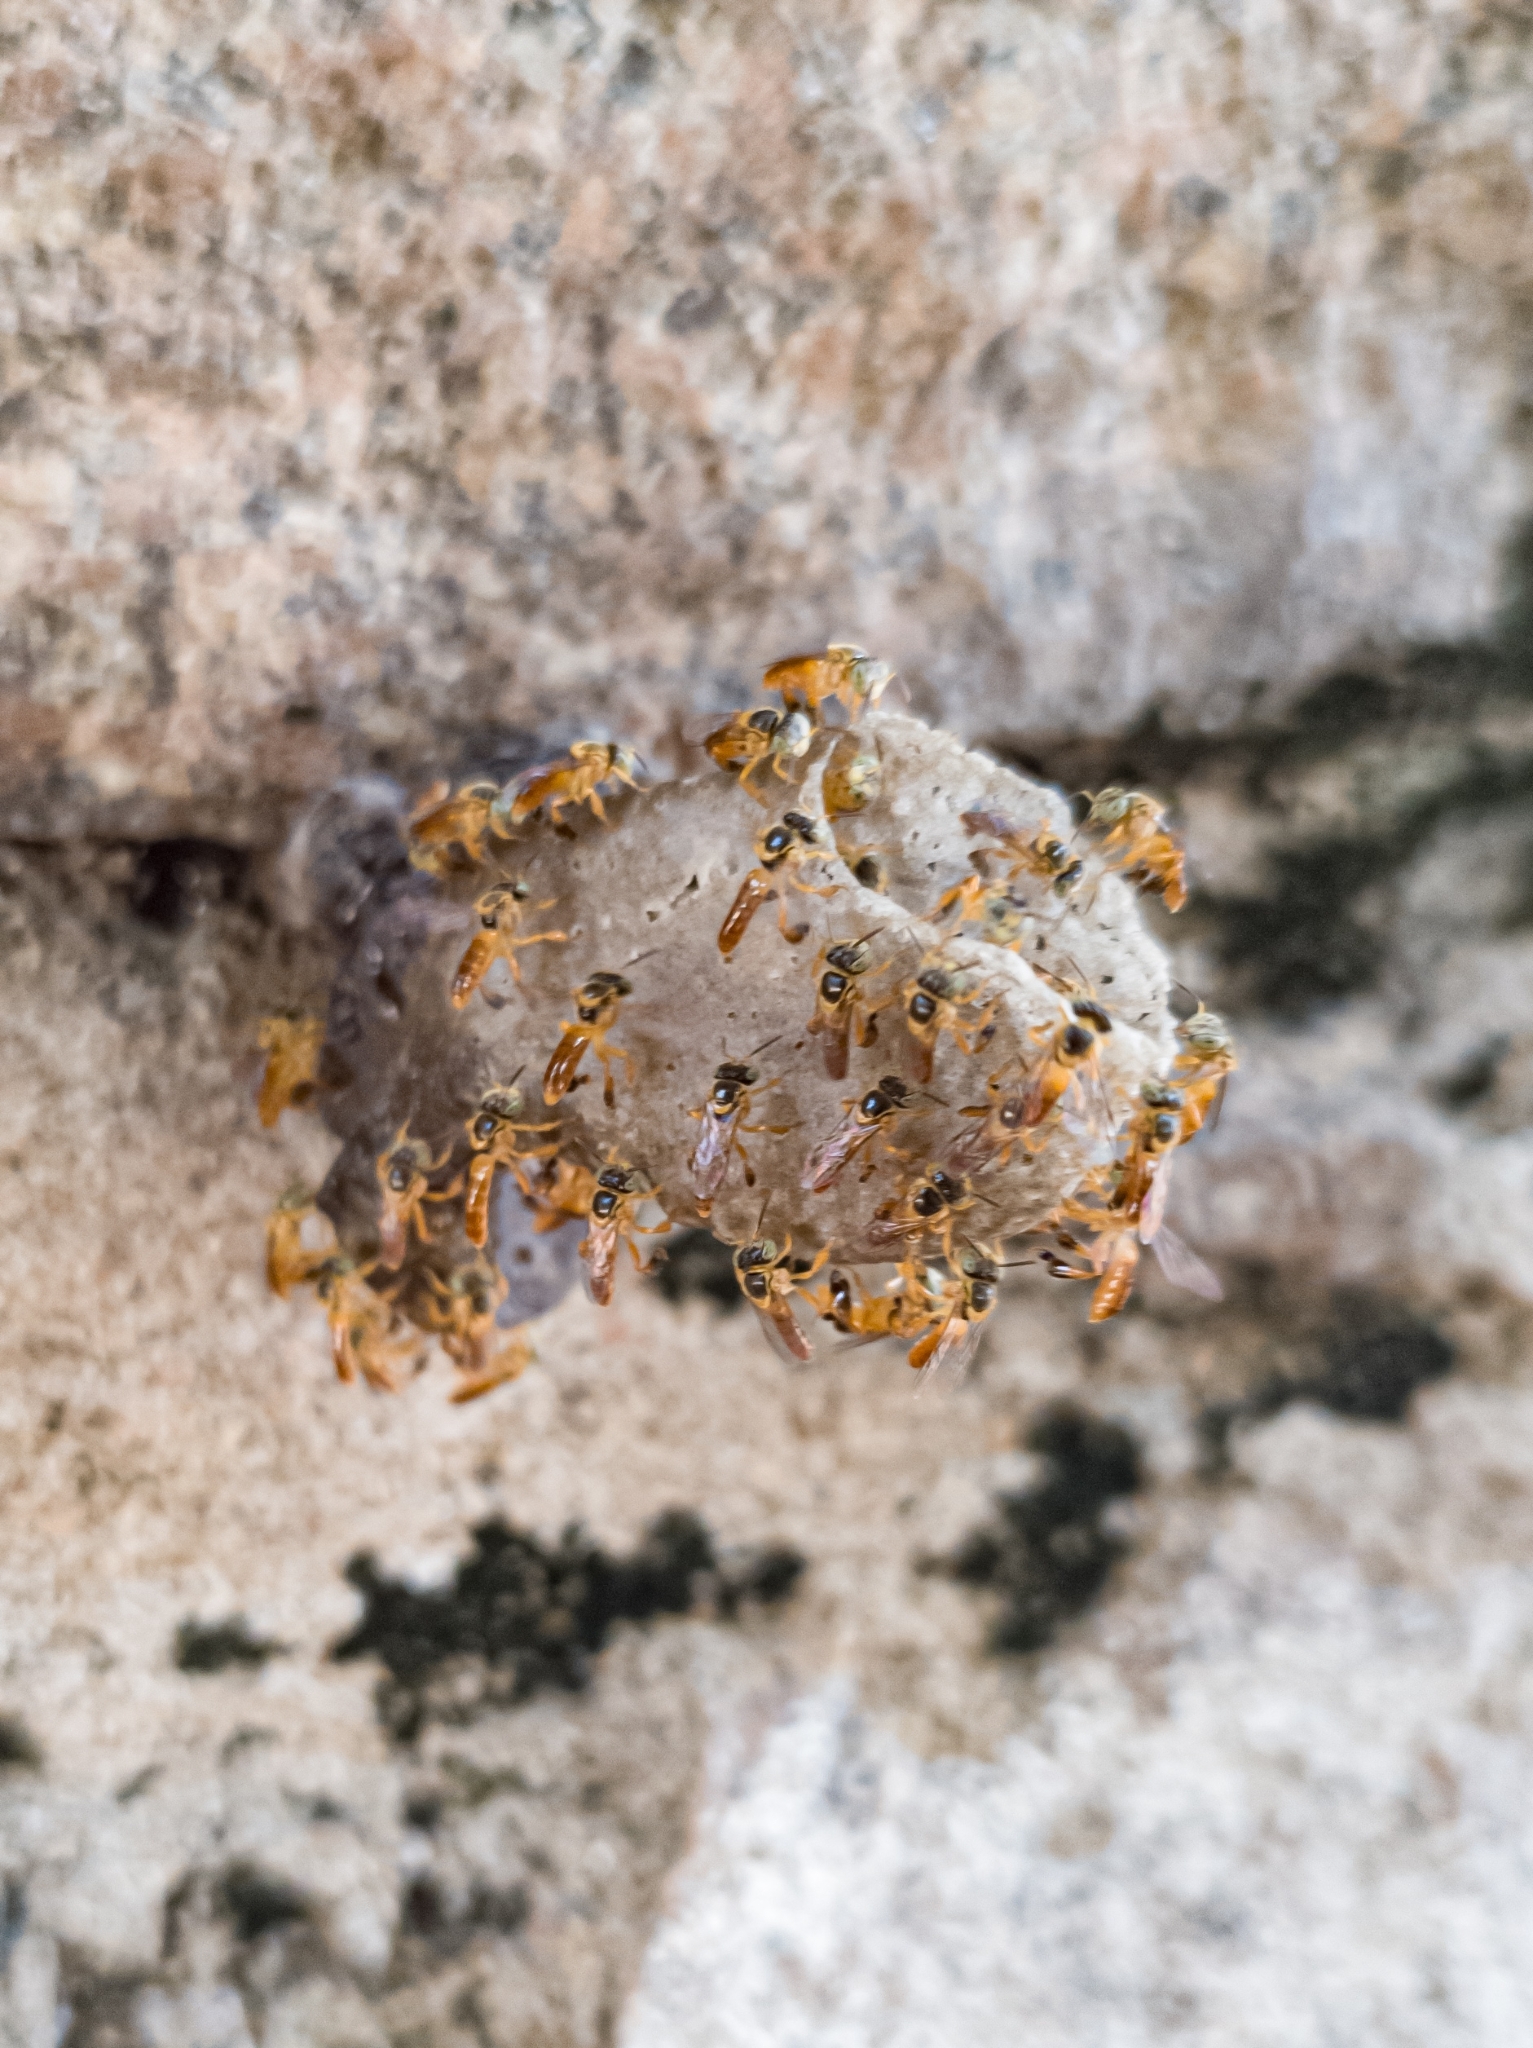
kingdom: Animalia
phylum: Arthropoda
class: Insecta
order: Hymenoptera
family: Apidae
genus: Tetragonisca
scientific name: Tetragonisca fiebrigi
